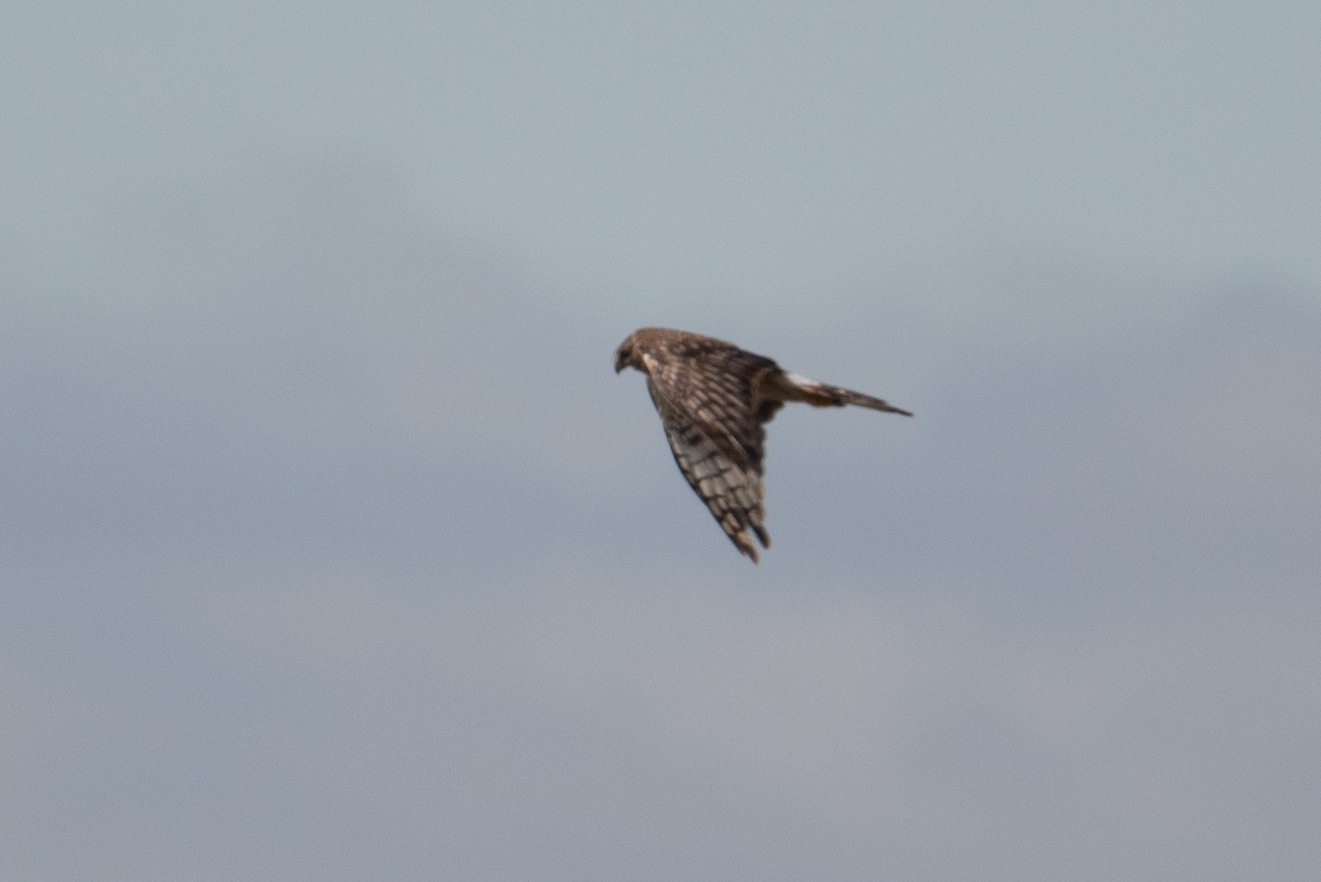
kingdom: Animalia
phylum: Chordata
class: Aves
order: Accipitriformes
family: Accipitridae
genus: Circus
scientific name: Circus cyaneus
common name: Hen harrier
